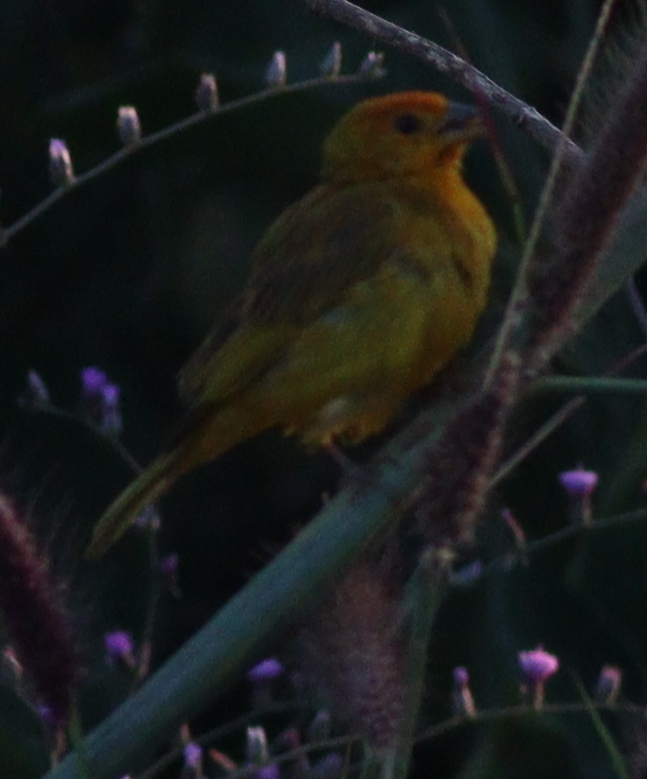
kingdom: Animalia
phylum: Chordata
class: Aves
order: Passeriformes
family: Thraupidae
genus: Sicalis
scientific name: Sicalis flaveola
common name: Saffron finch
